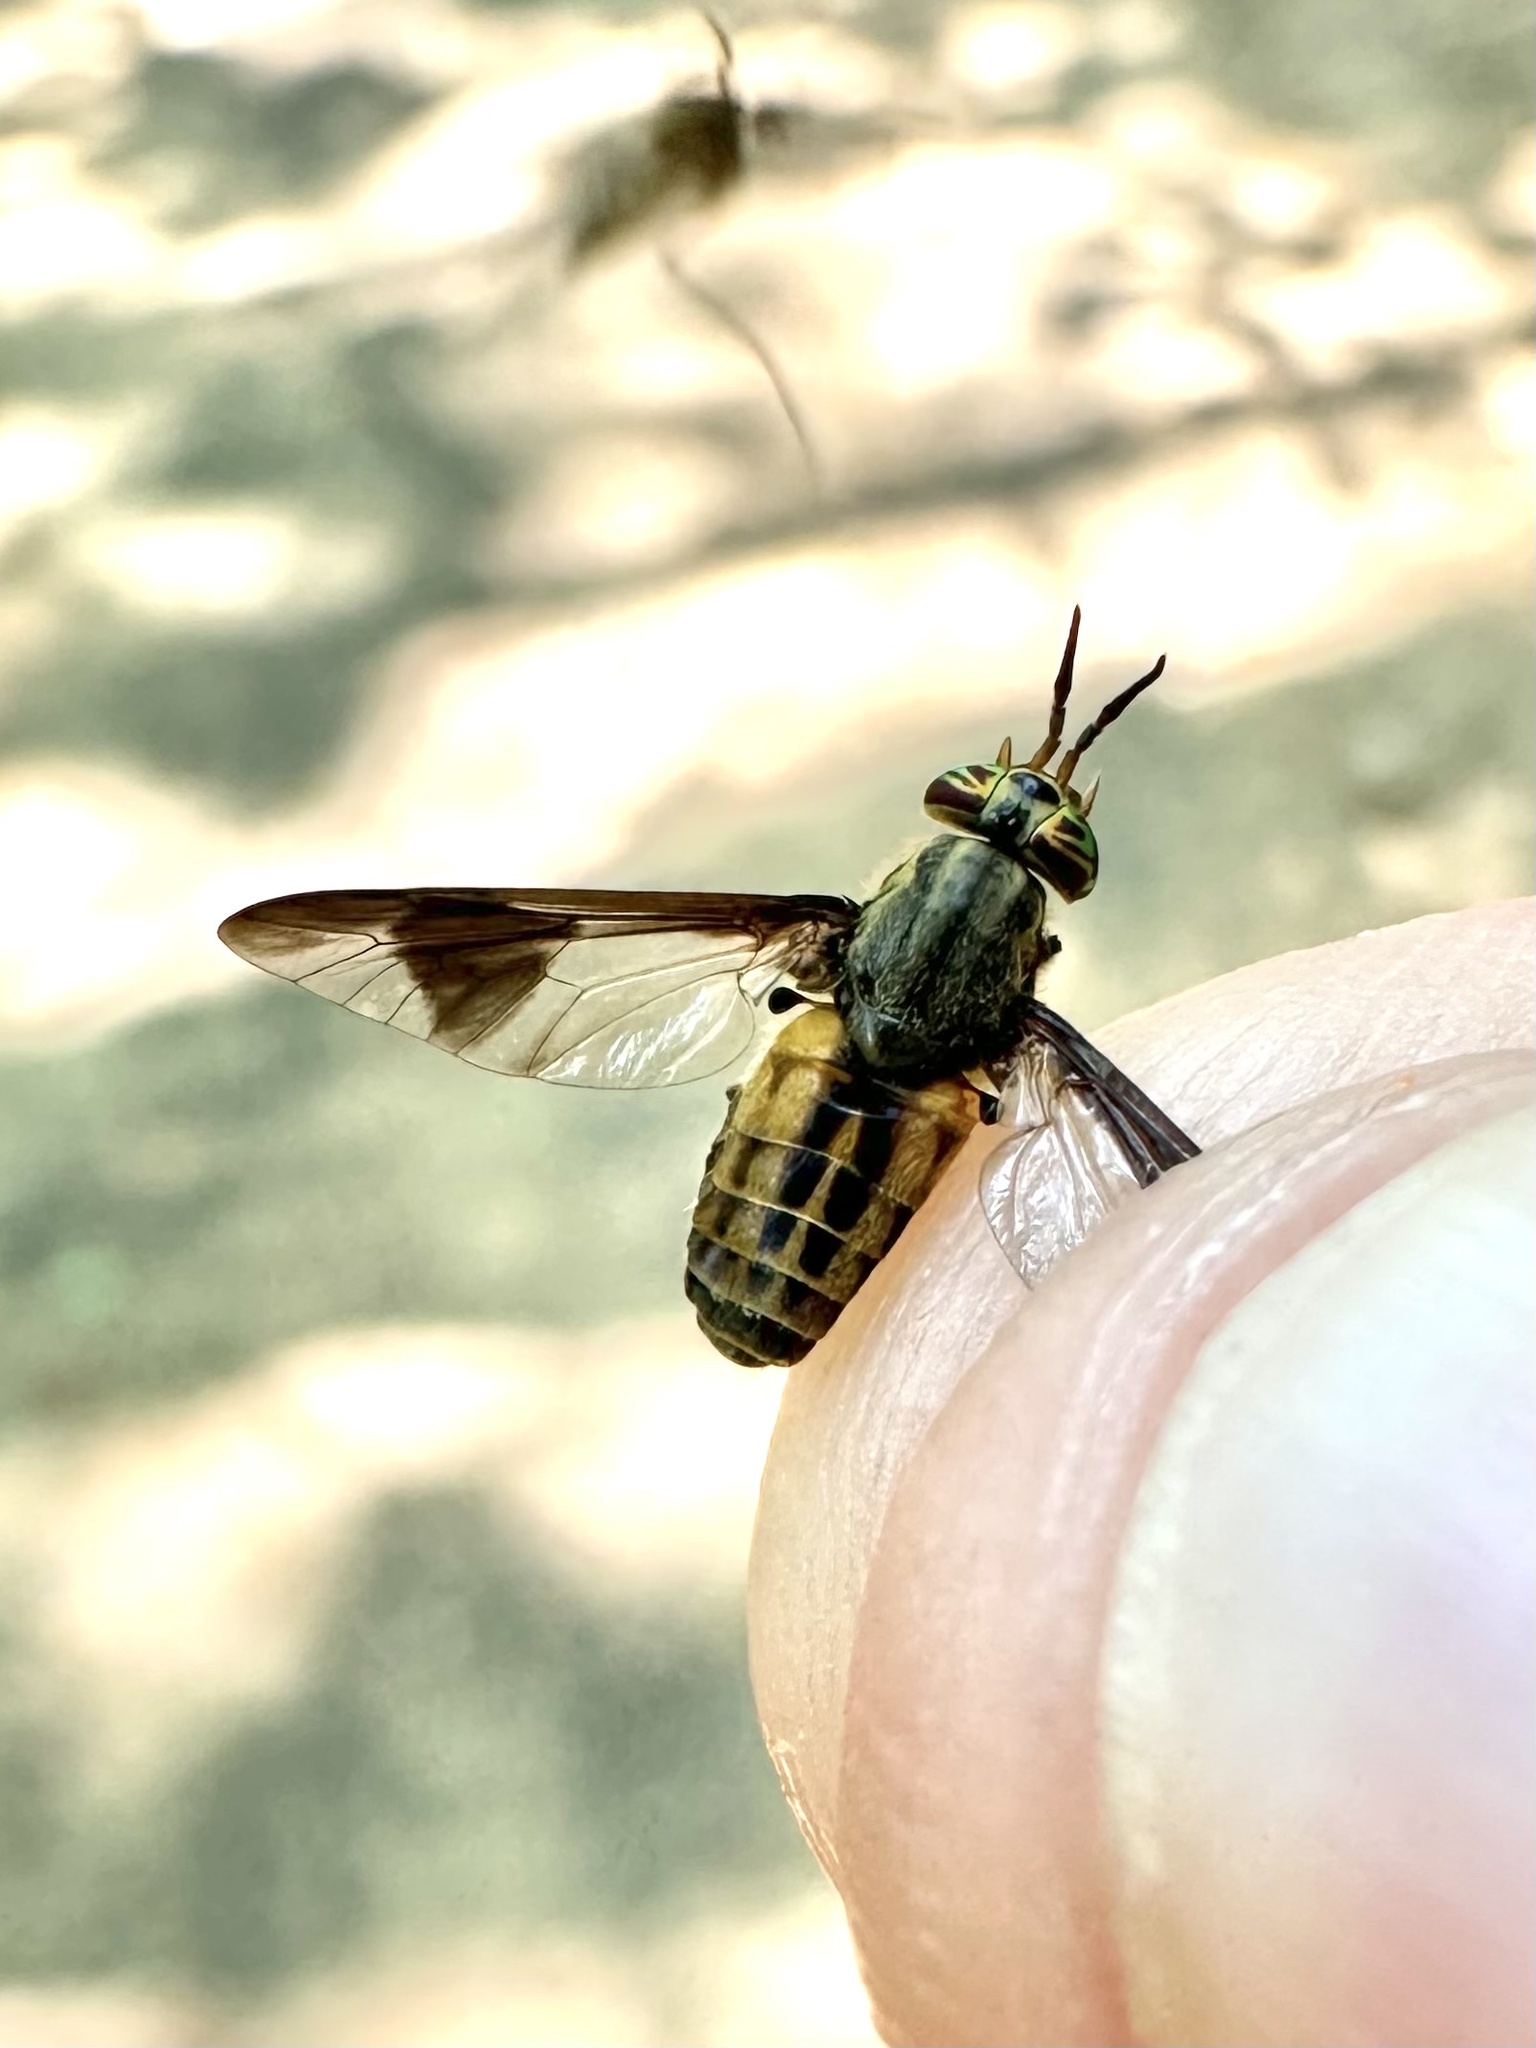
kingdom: Animalia
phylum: Arthropoda
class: Insecta
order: Diptera
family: Tabanidae
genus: Chrysops
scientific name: Chrysops striatus
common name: Striated deer fly
